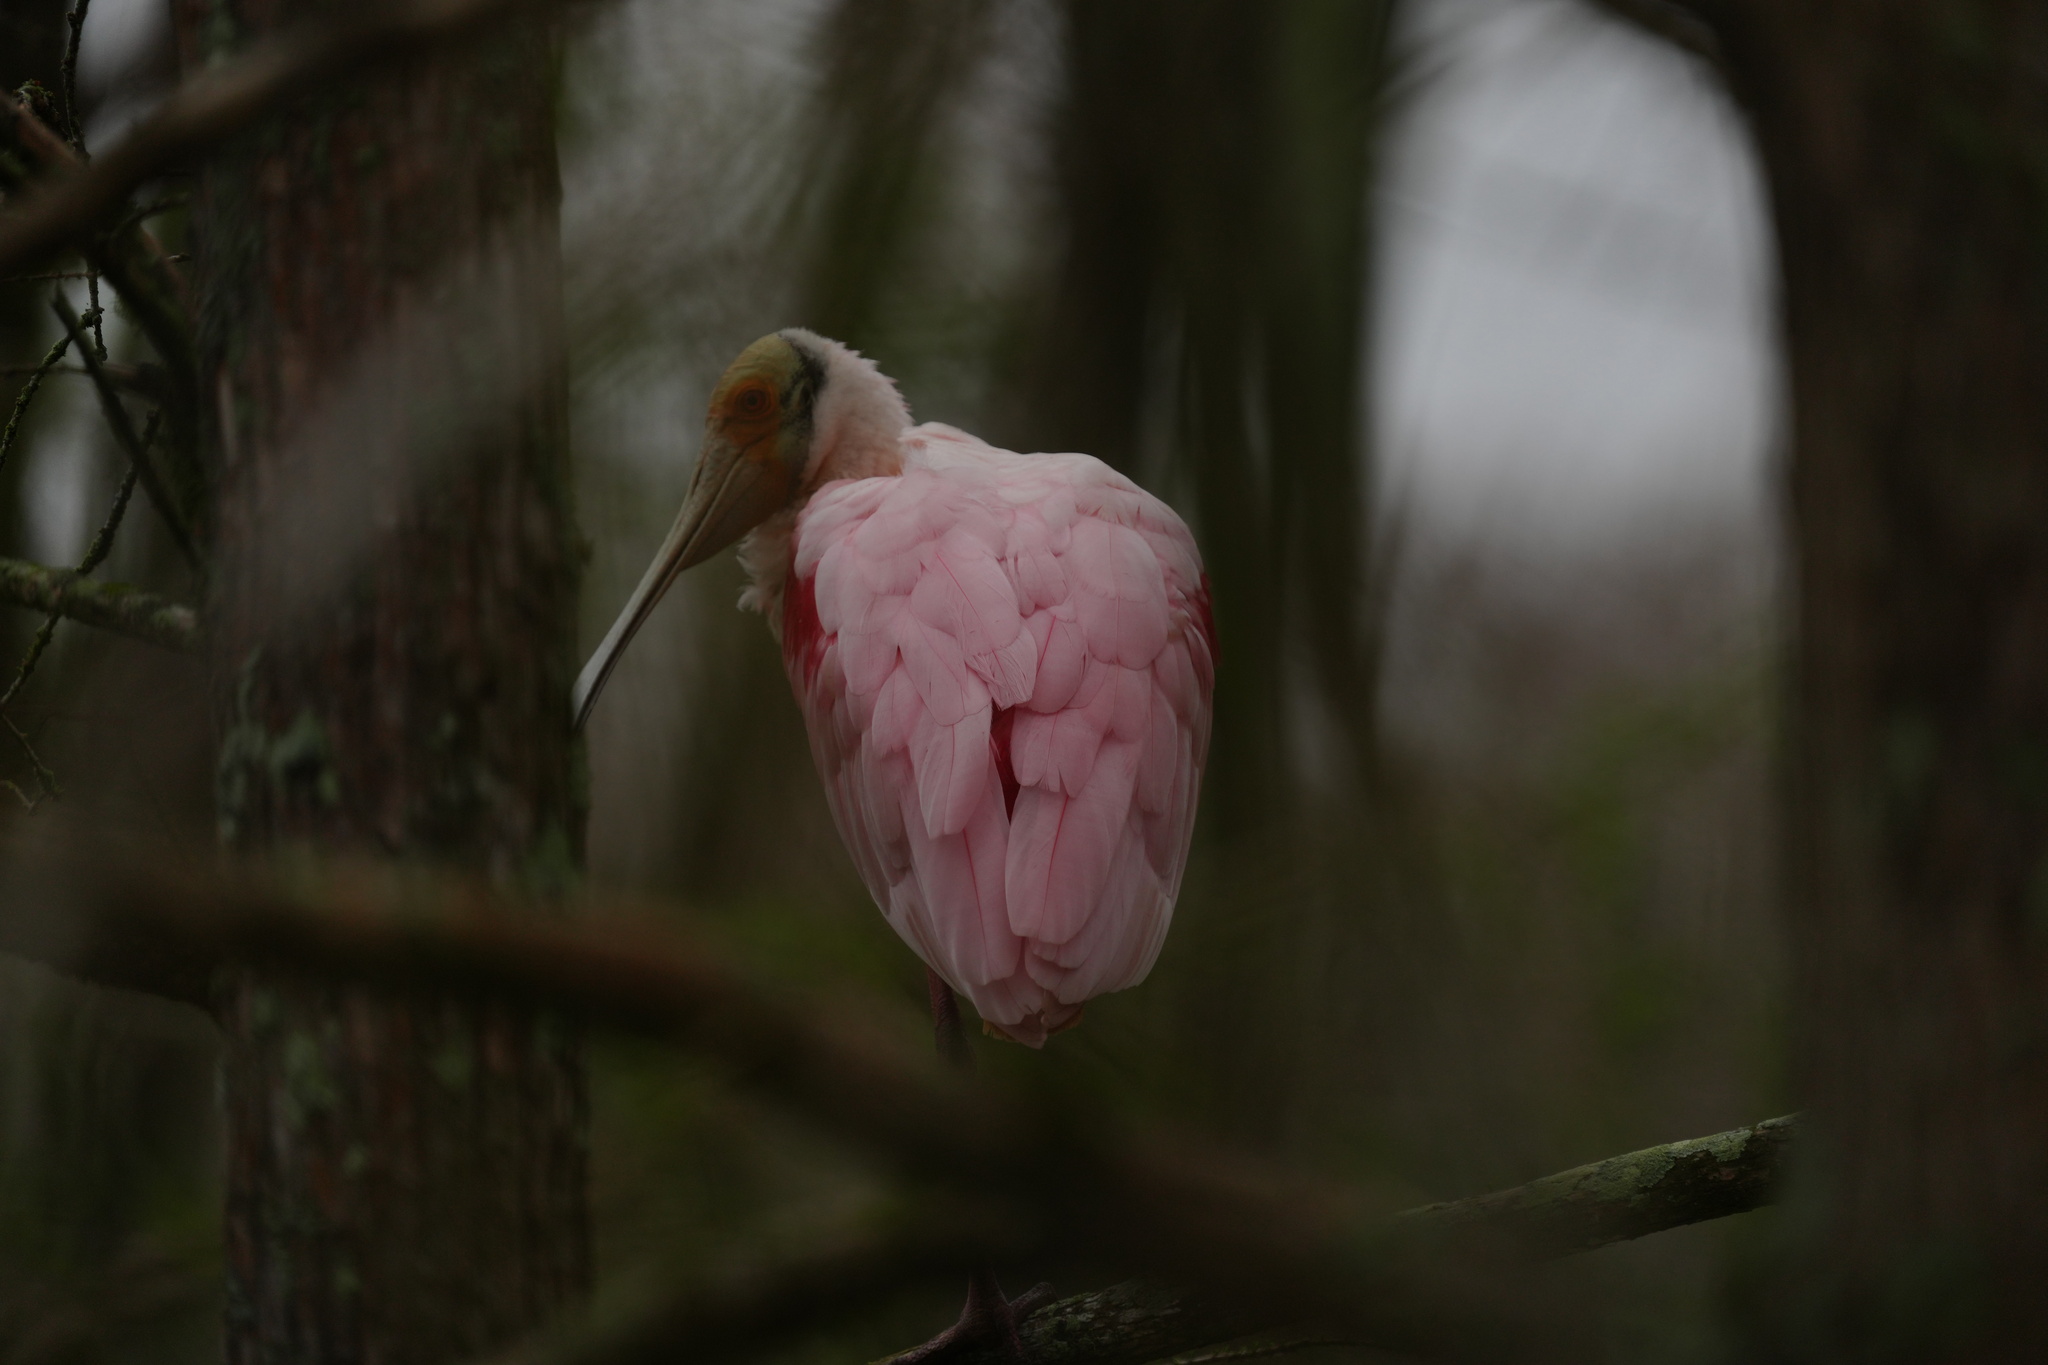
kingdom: Animalia
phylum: Chordata
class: Aves
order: Pelecaniformes
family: Threskiornithidae
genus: Platalea
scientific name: Platalea ajaja
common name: Roseate spoonbill
